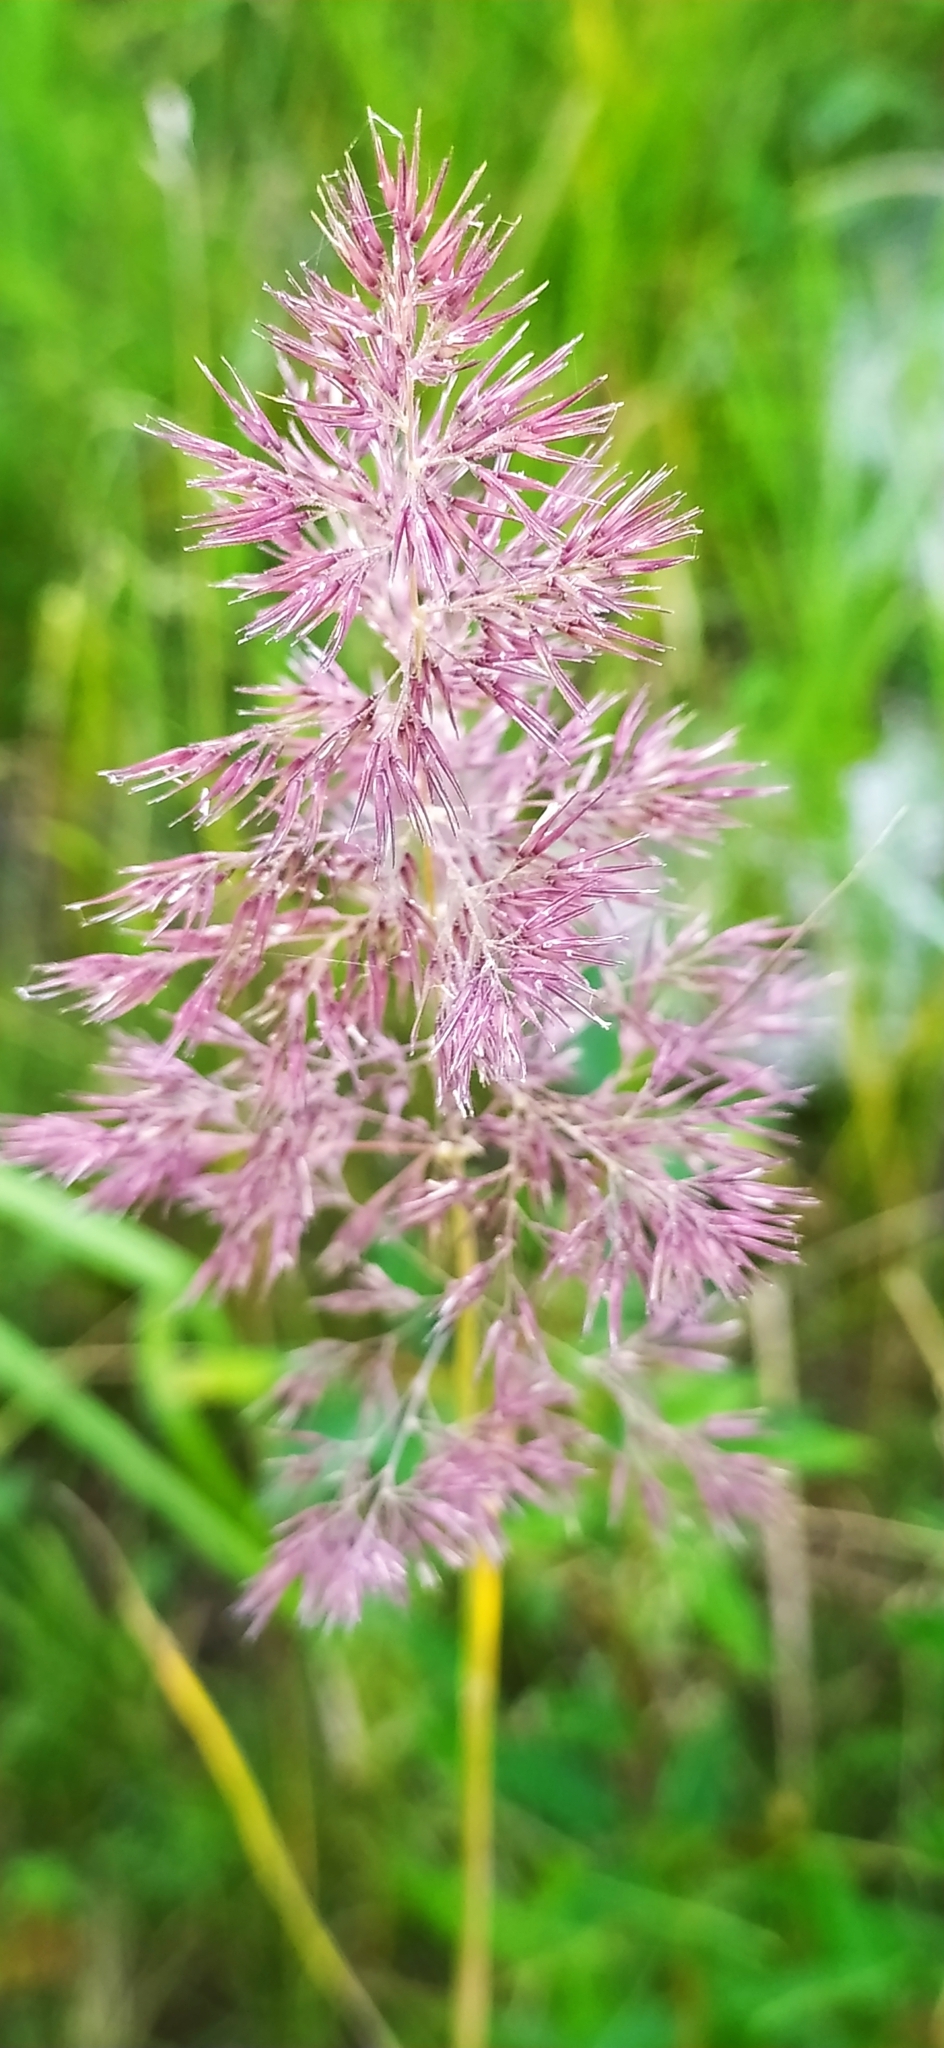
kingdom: Plantae
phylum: Tracheophyta
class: Liliopsida
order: Poales
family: Poaceae
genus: Calamagrostis
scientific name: Calamagrostis epigejos
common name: Wood small-reed
